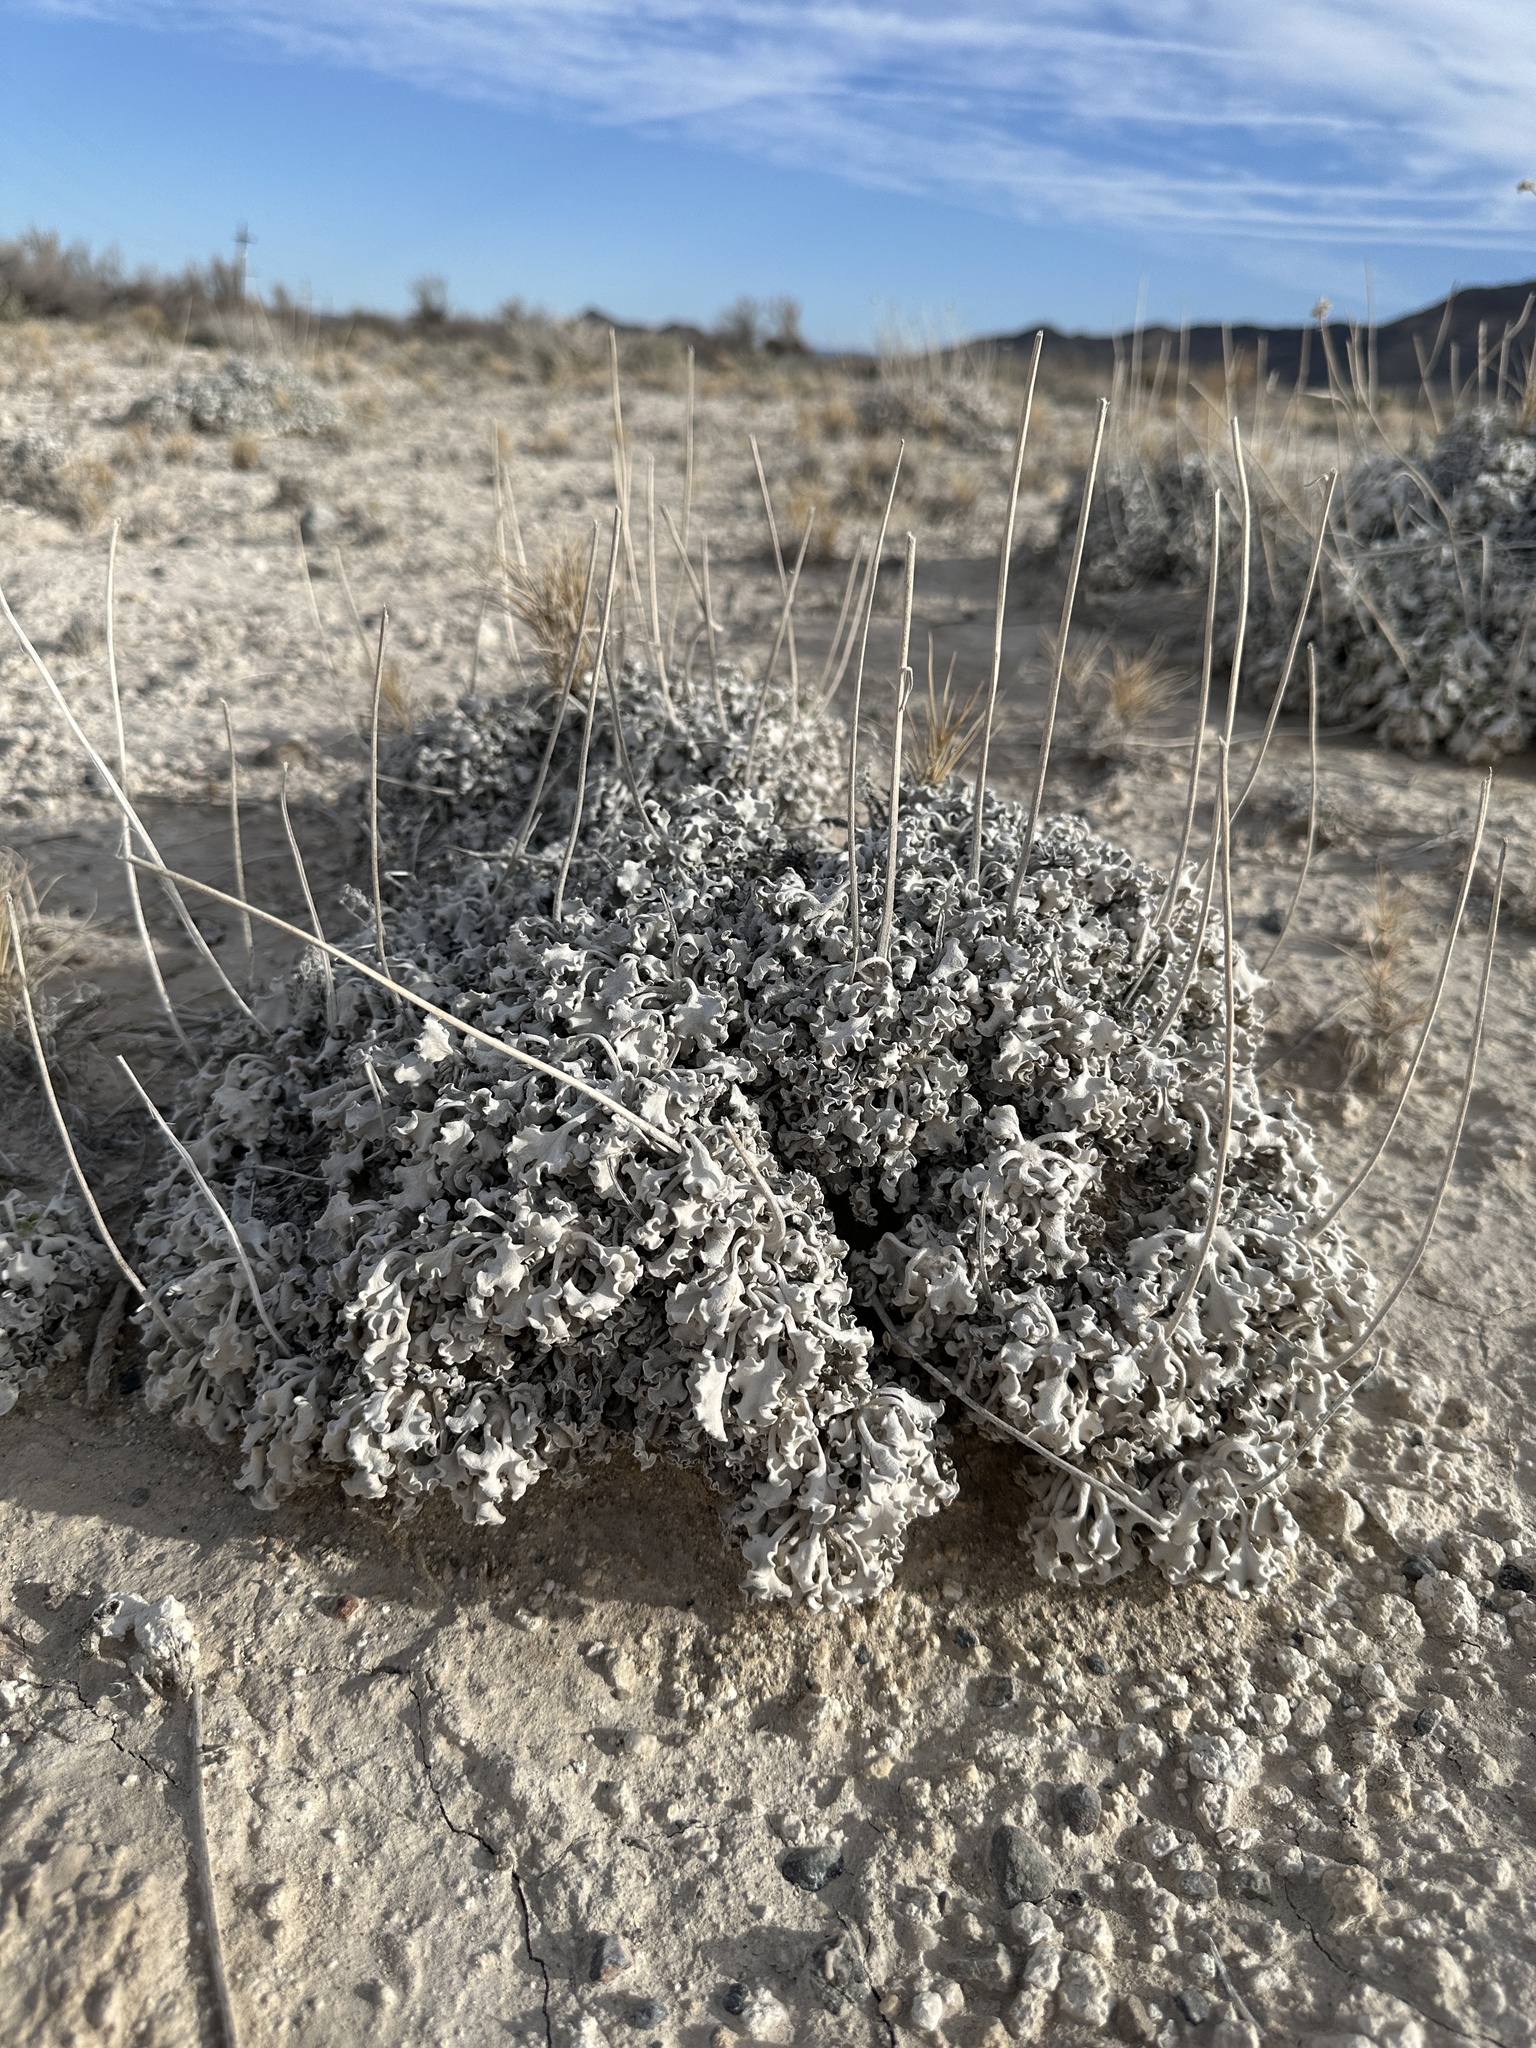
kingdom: Plantae
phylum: Tracheophyta
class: Magnoliopsida
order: Asterales
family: Asteraceae
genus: Enceliopsis
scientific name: Enceliopsis nudicaulis
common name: Naked-stem daisy
